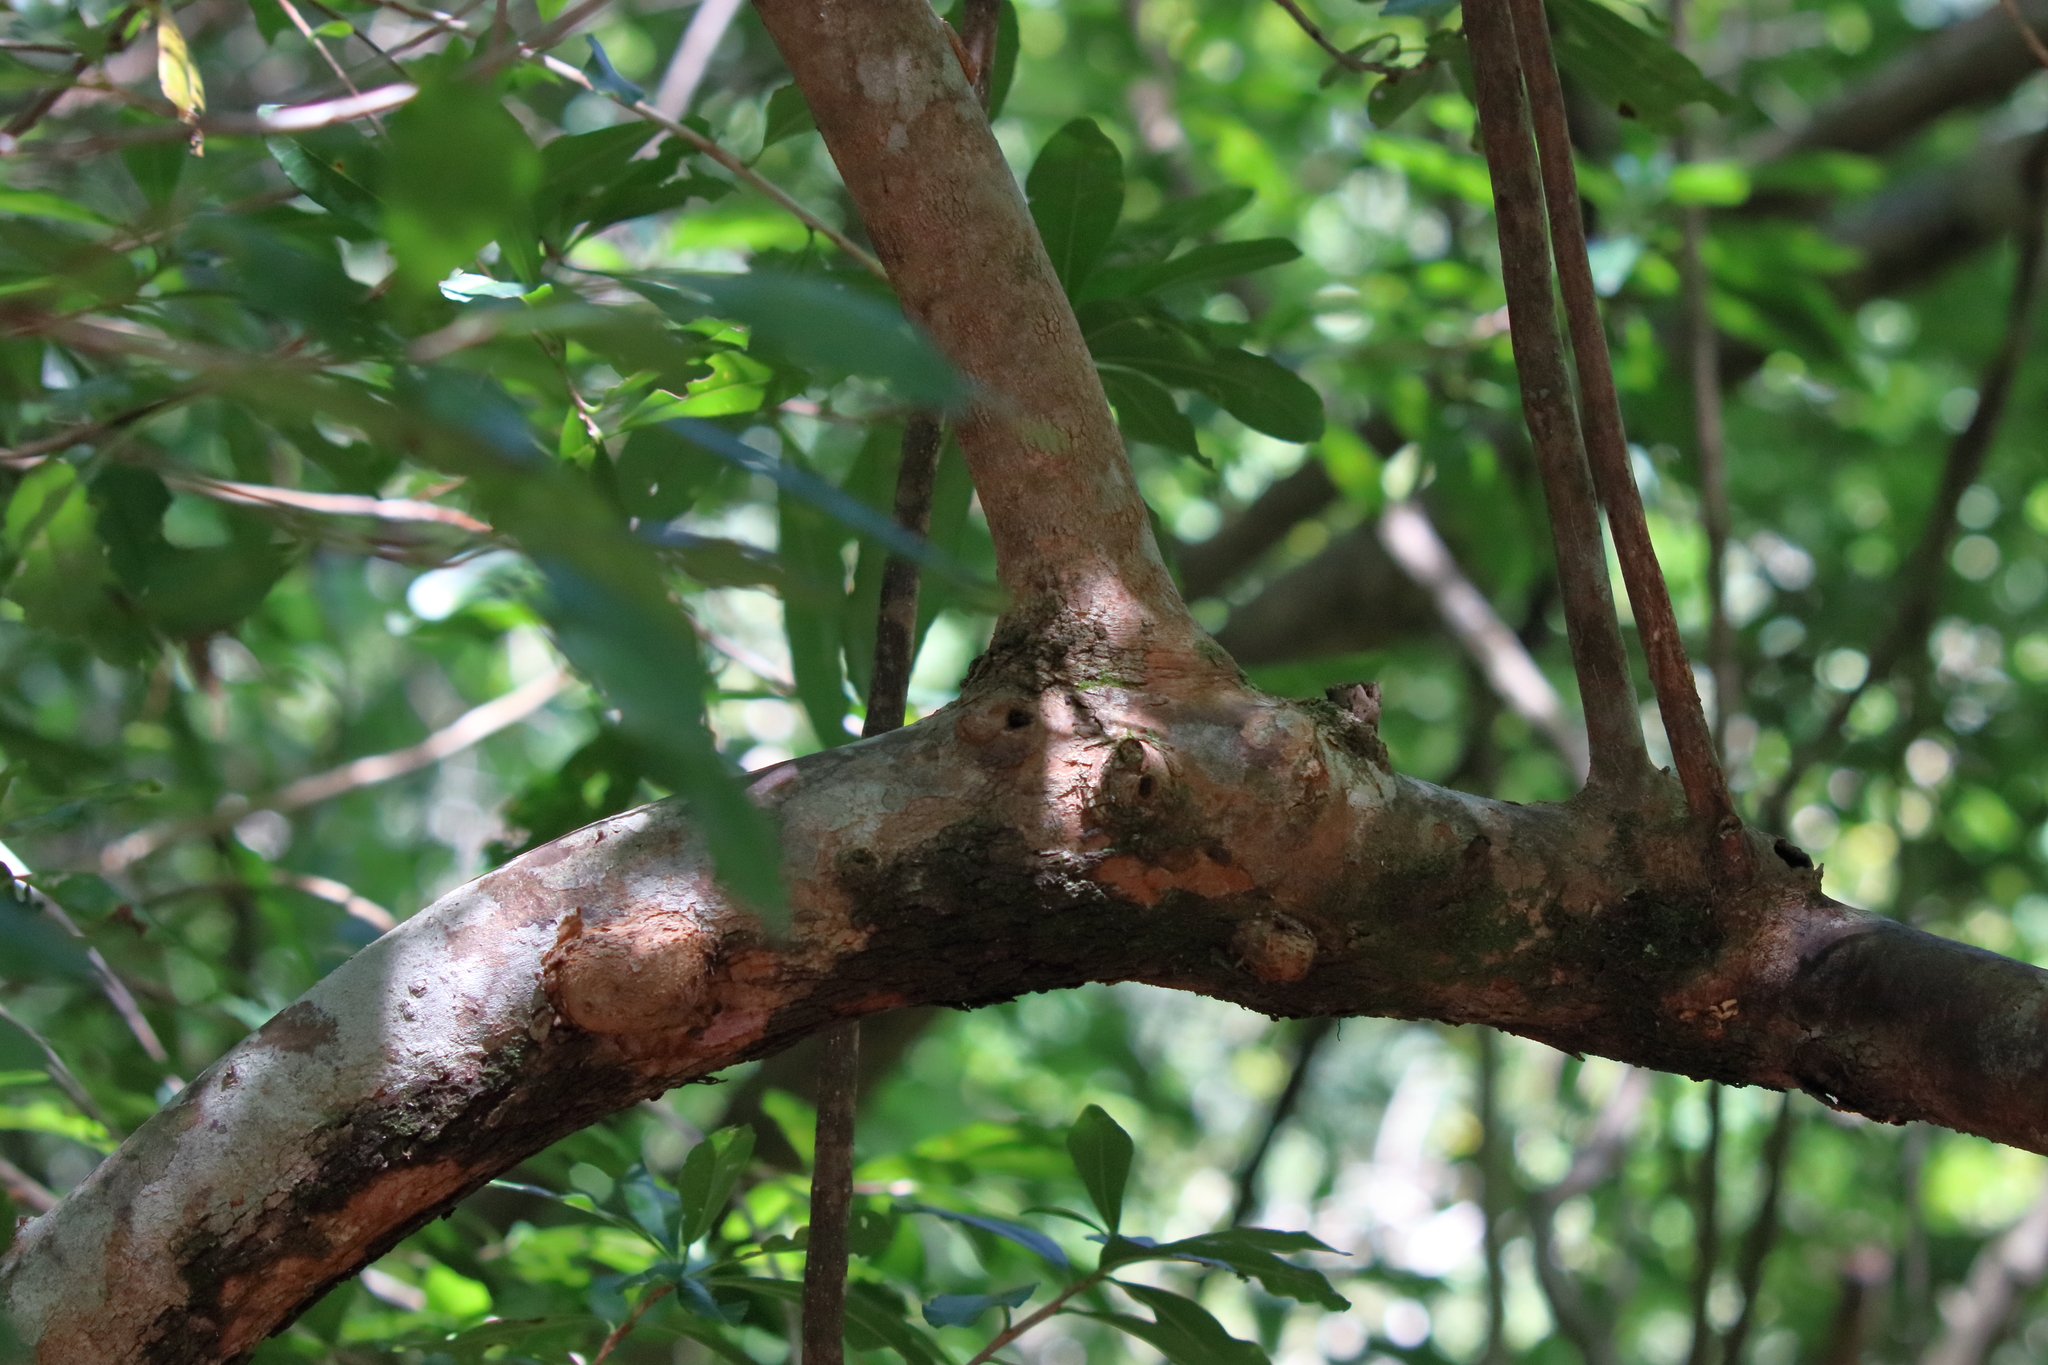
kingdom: Plantae
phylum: Tracheophyta
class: Magnoliopsida
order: Ericales
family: Cyrillaceae
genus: Cyrilla
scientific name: Cyrilla racemiflora
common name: Black titi
